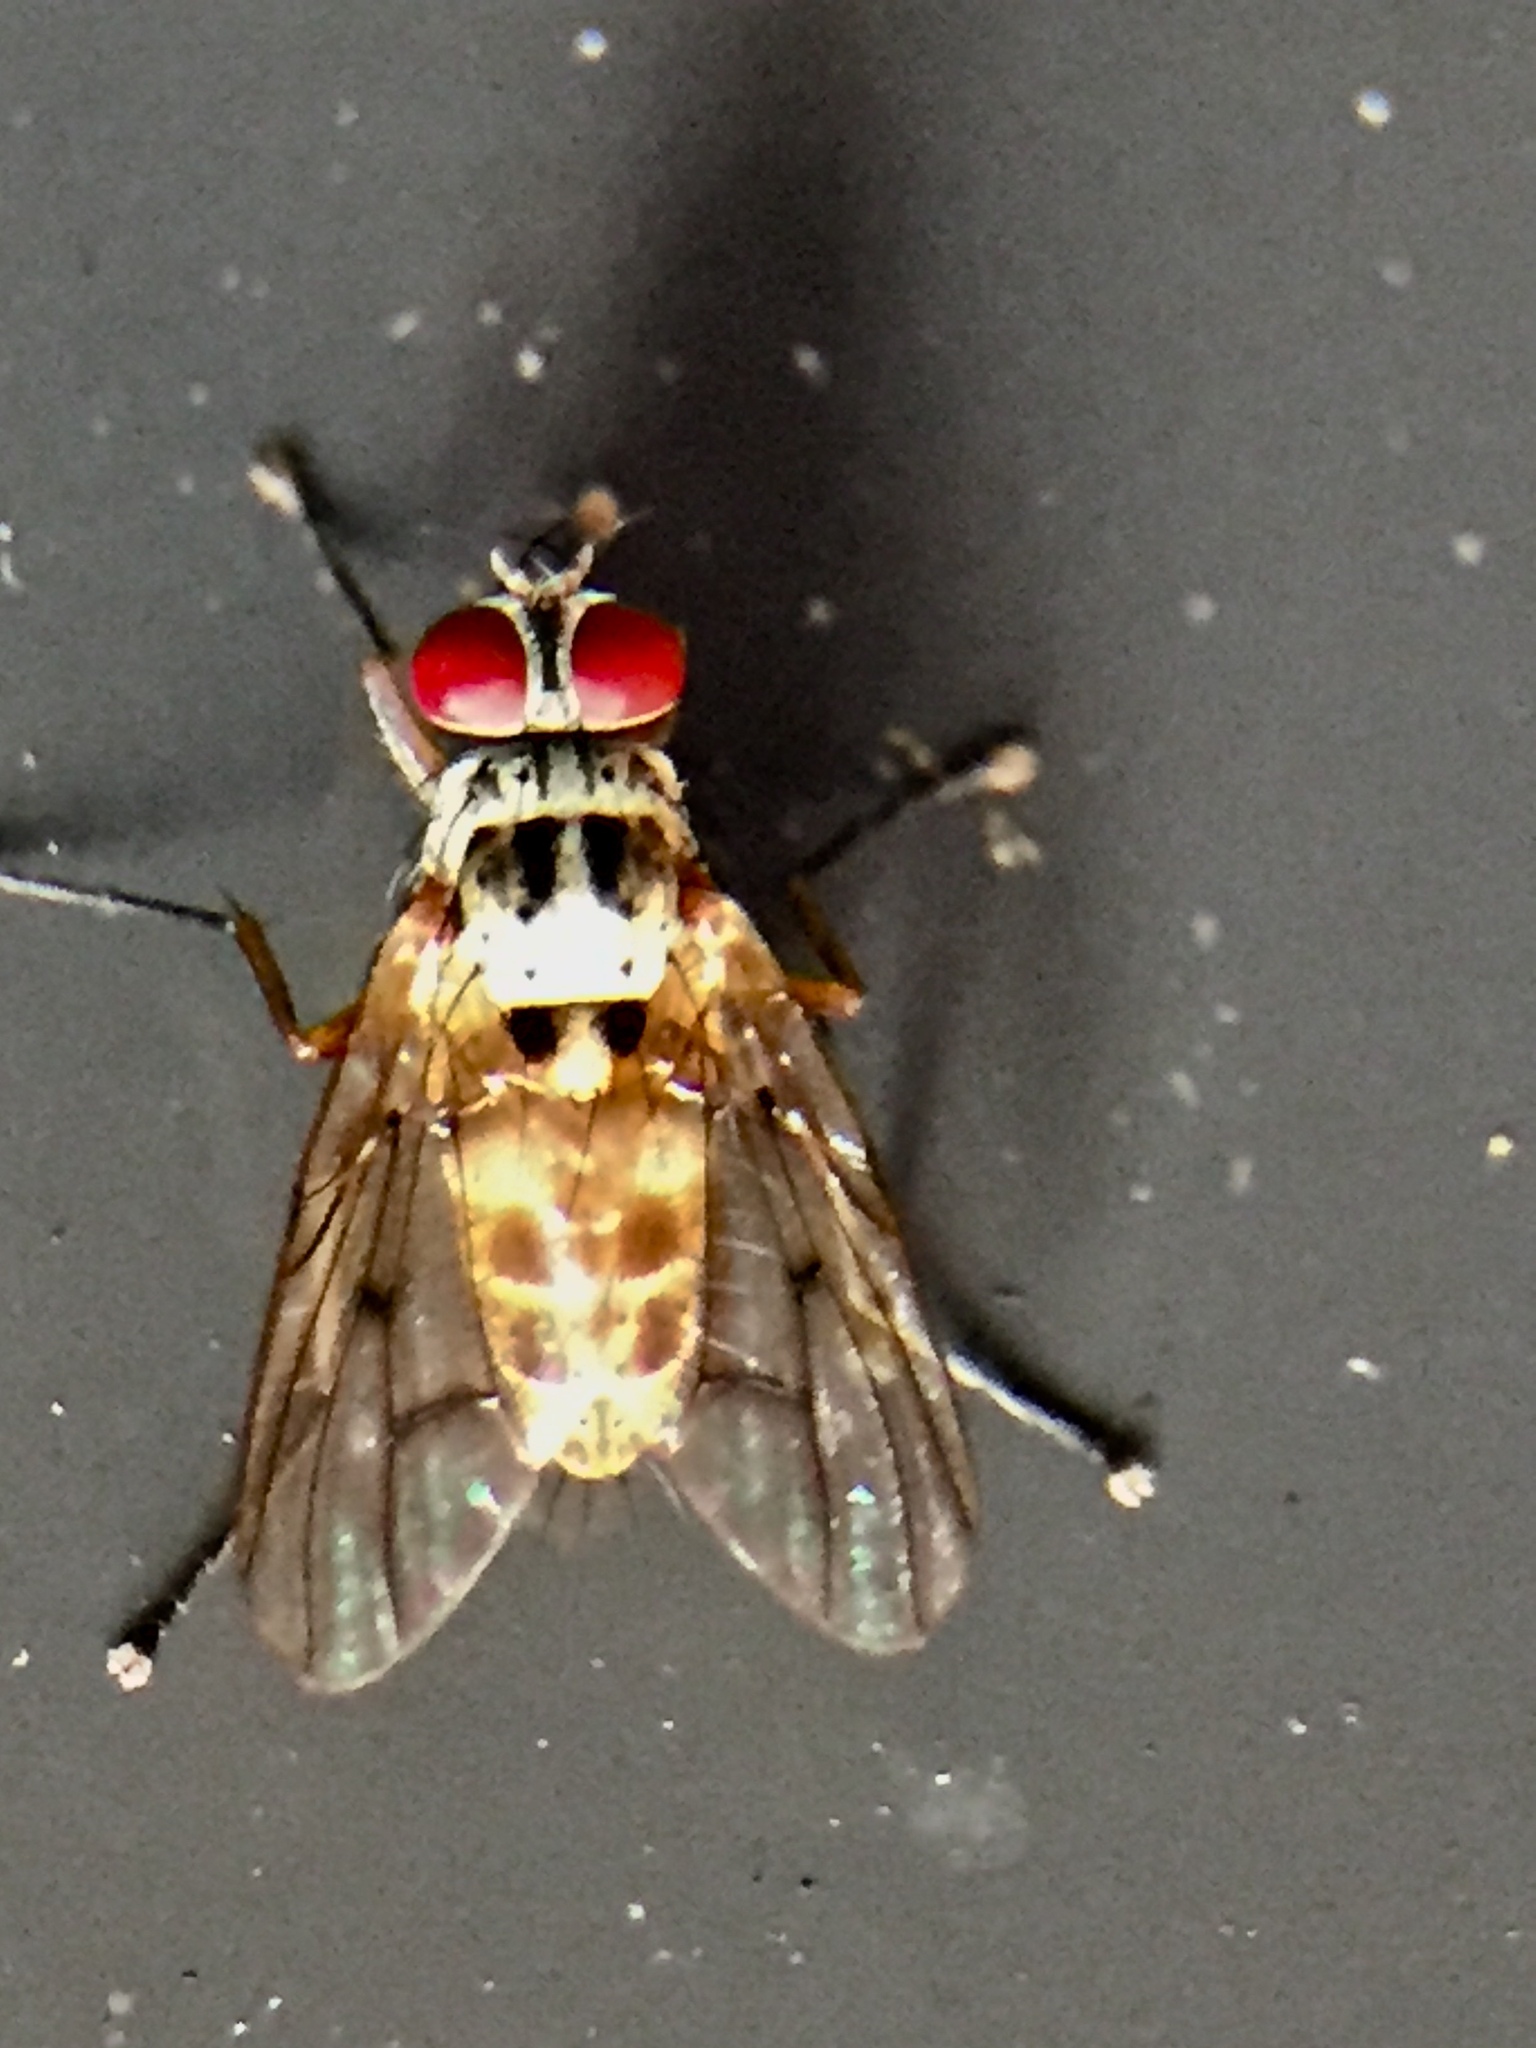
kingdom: Animalia
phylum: Arthropoda
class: Insecta
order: Diptera
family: Muscidae
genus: Helina
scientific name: Helina sexmaculata
